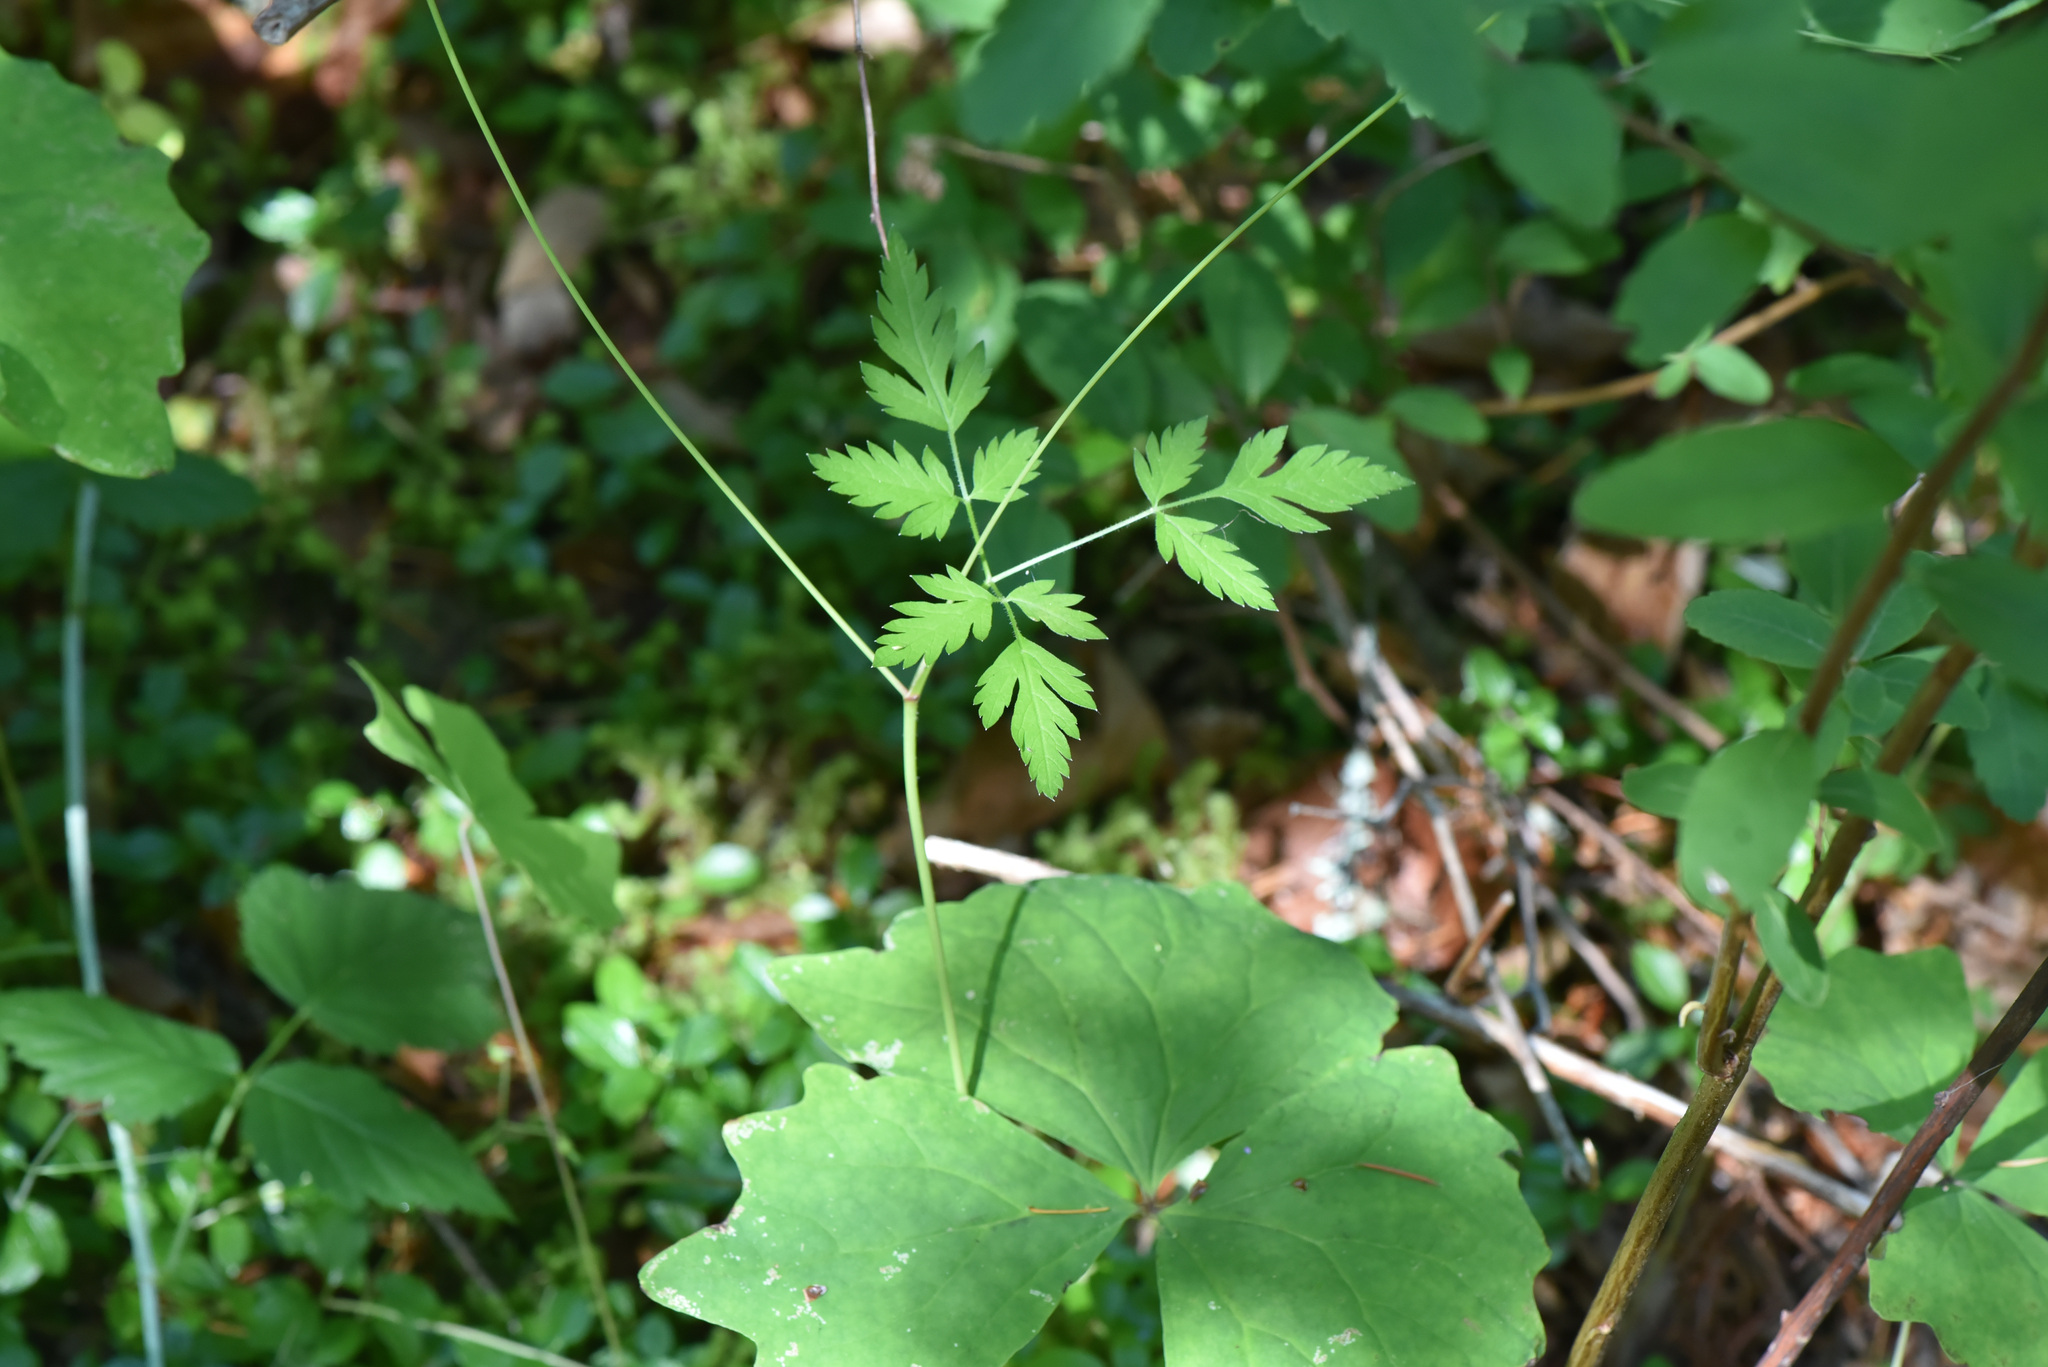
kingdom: Plantae
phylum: Tracheophyta
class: Magnoliopsida
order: Apiales
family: Apiaceae
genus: Osmorhiza
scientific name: Osmorhiza berteroi
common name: Mountain sweet cicely
